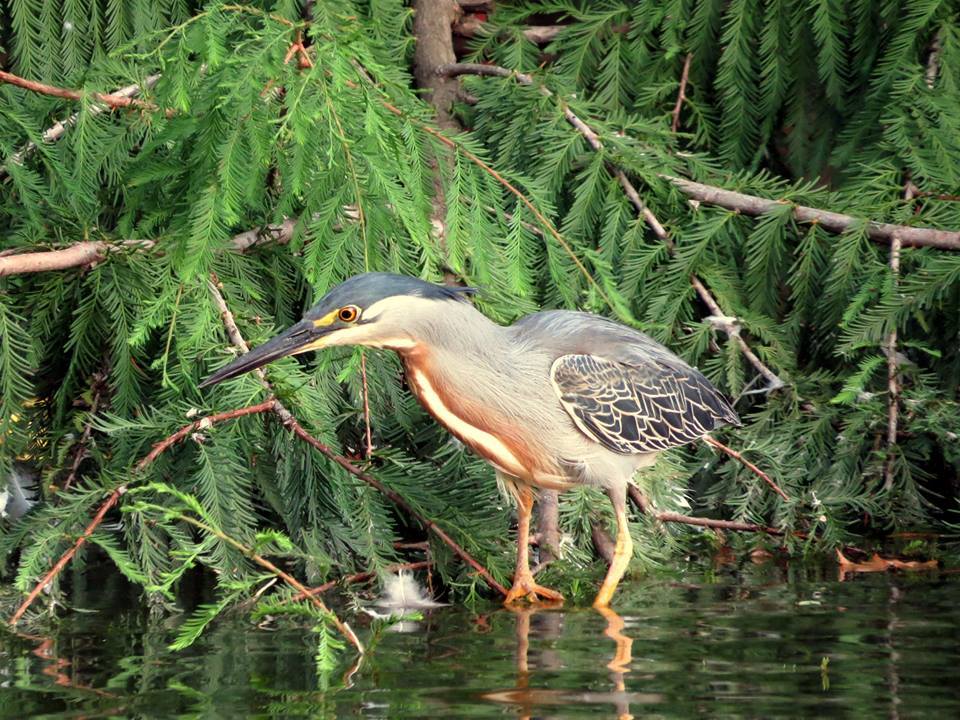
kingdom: Animalia
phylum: Chordata
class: Aves
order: Pelecaniformes
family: Ardeidae
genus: Butorides
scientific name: Butorides striata
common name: Striated heron
